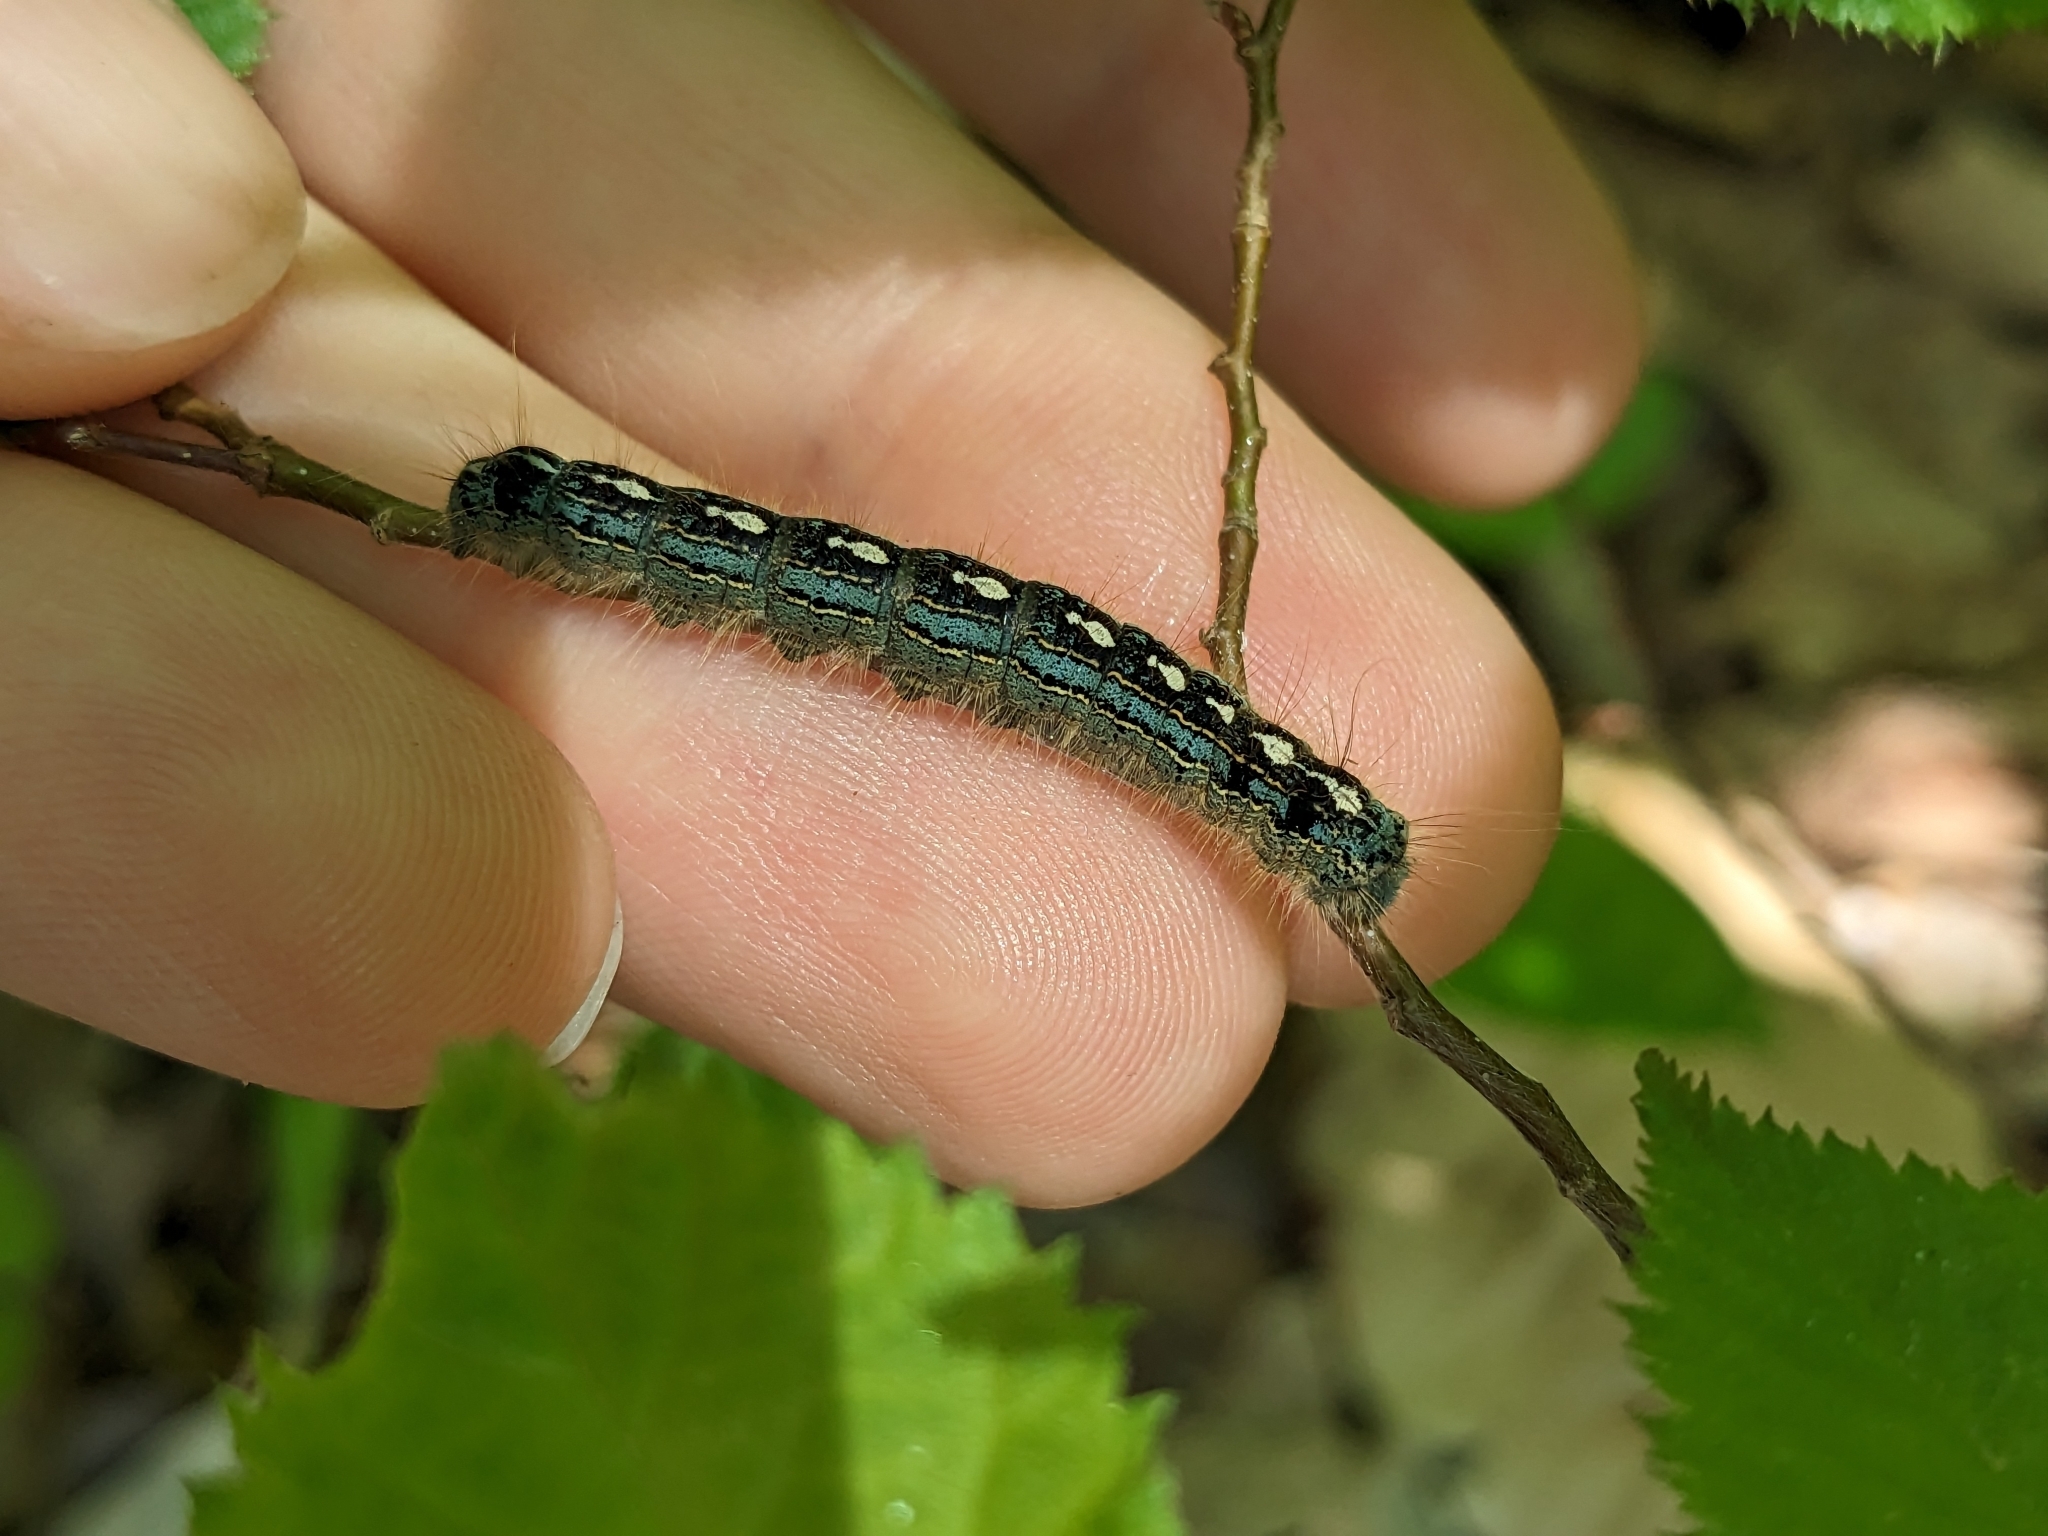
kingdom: Animalia
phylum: Arthropoda
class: Insecta
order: Lepidoptera
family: Lasiocampidae
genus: Malacosoma
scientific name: Malacosoma disstria
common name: Forest tent caterpillar
